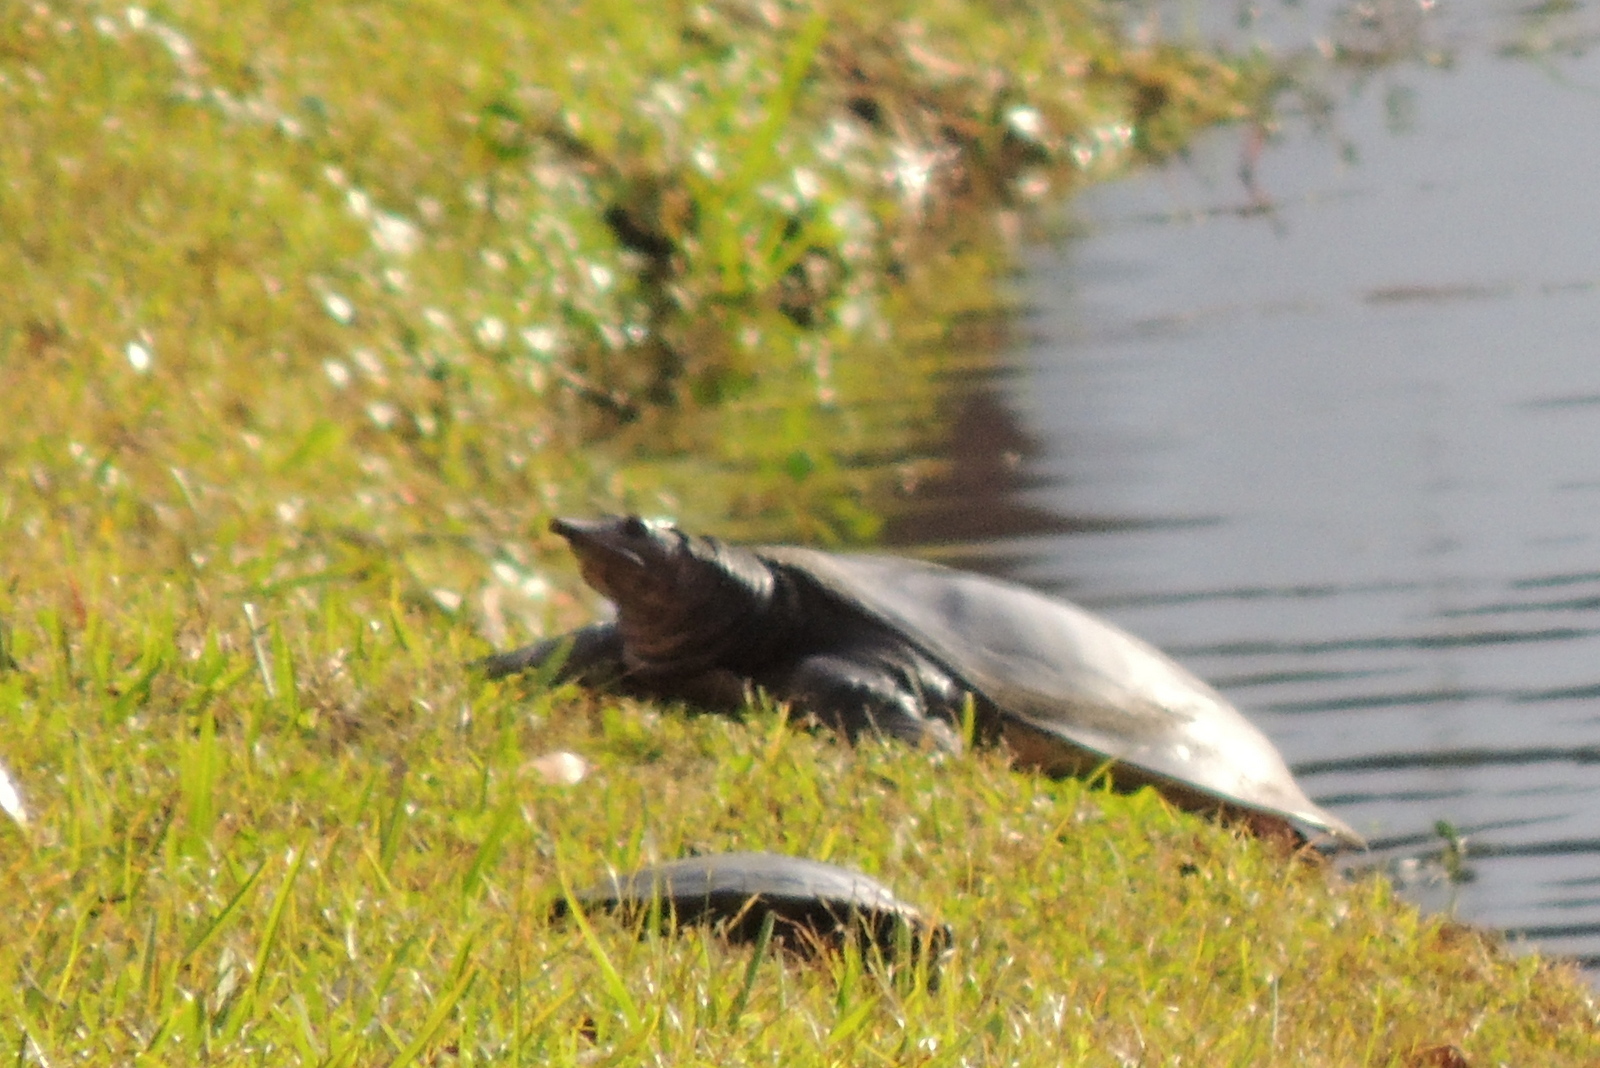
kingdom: Animalia
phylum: Chordata
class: Testudines
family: Trionychidae
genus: Apalone
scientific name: Apalone ferox
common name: Florida softshell turtle
